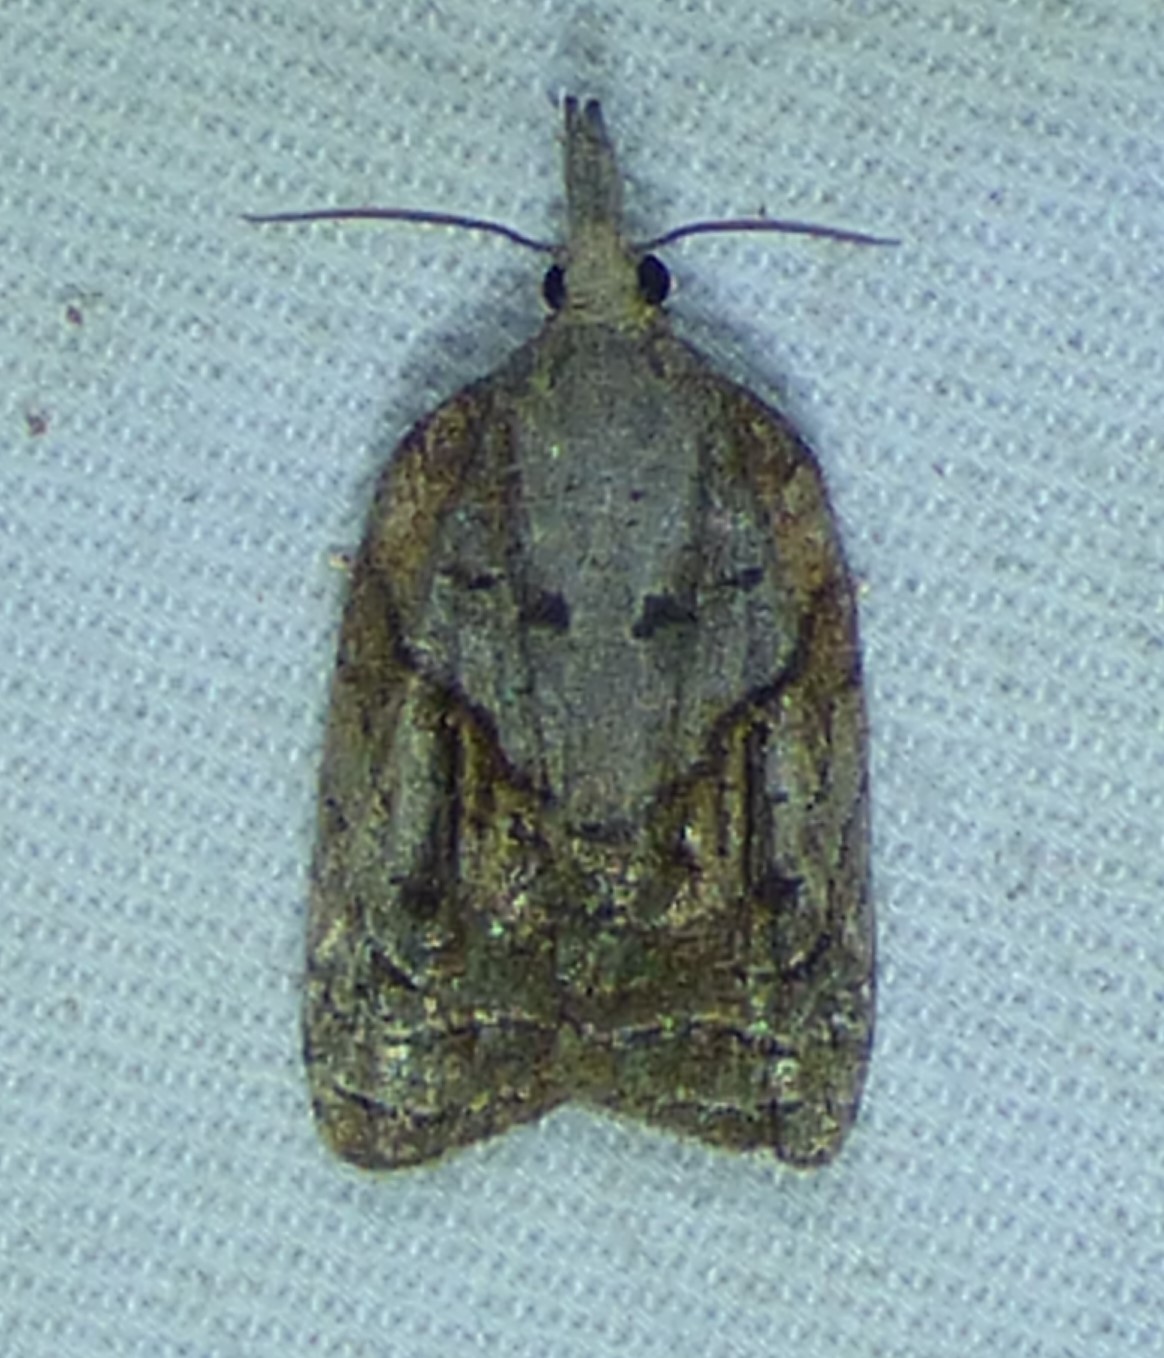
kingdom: Animalia
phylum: Arthropoda
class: Insecta
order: Lepidoptera
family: Tortricidae
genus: Platynota
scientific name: Platynota idaeusalis
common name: Tufted apple bud moth
